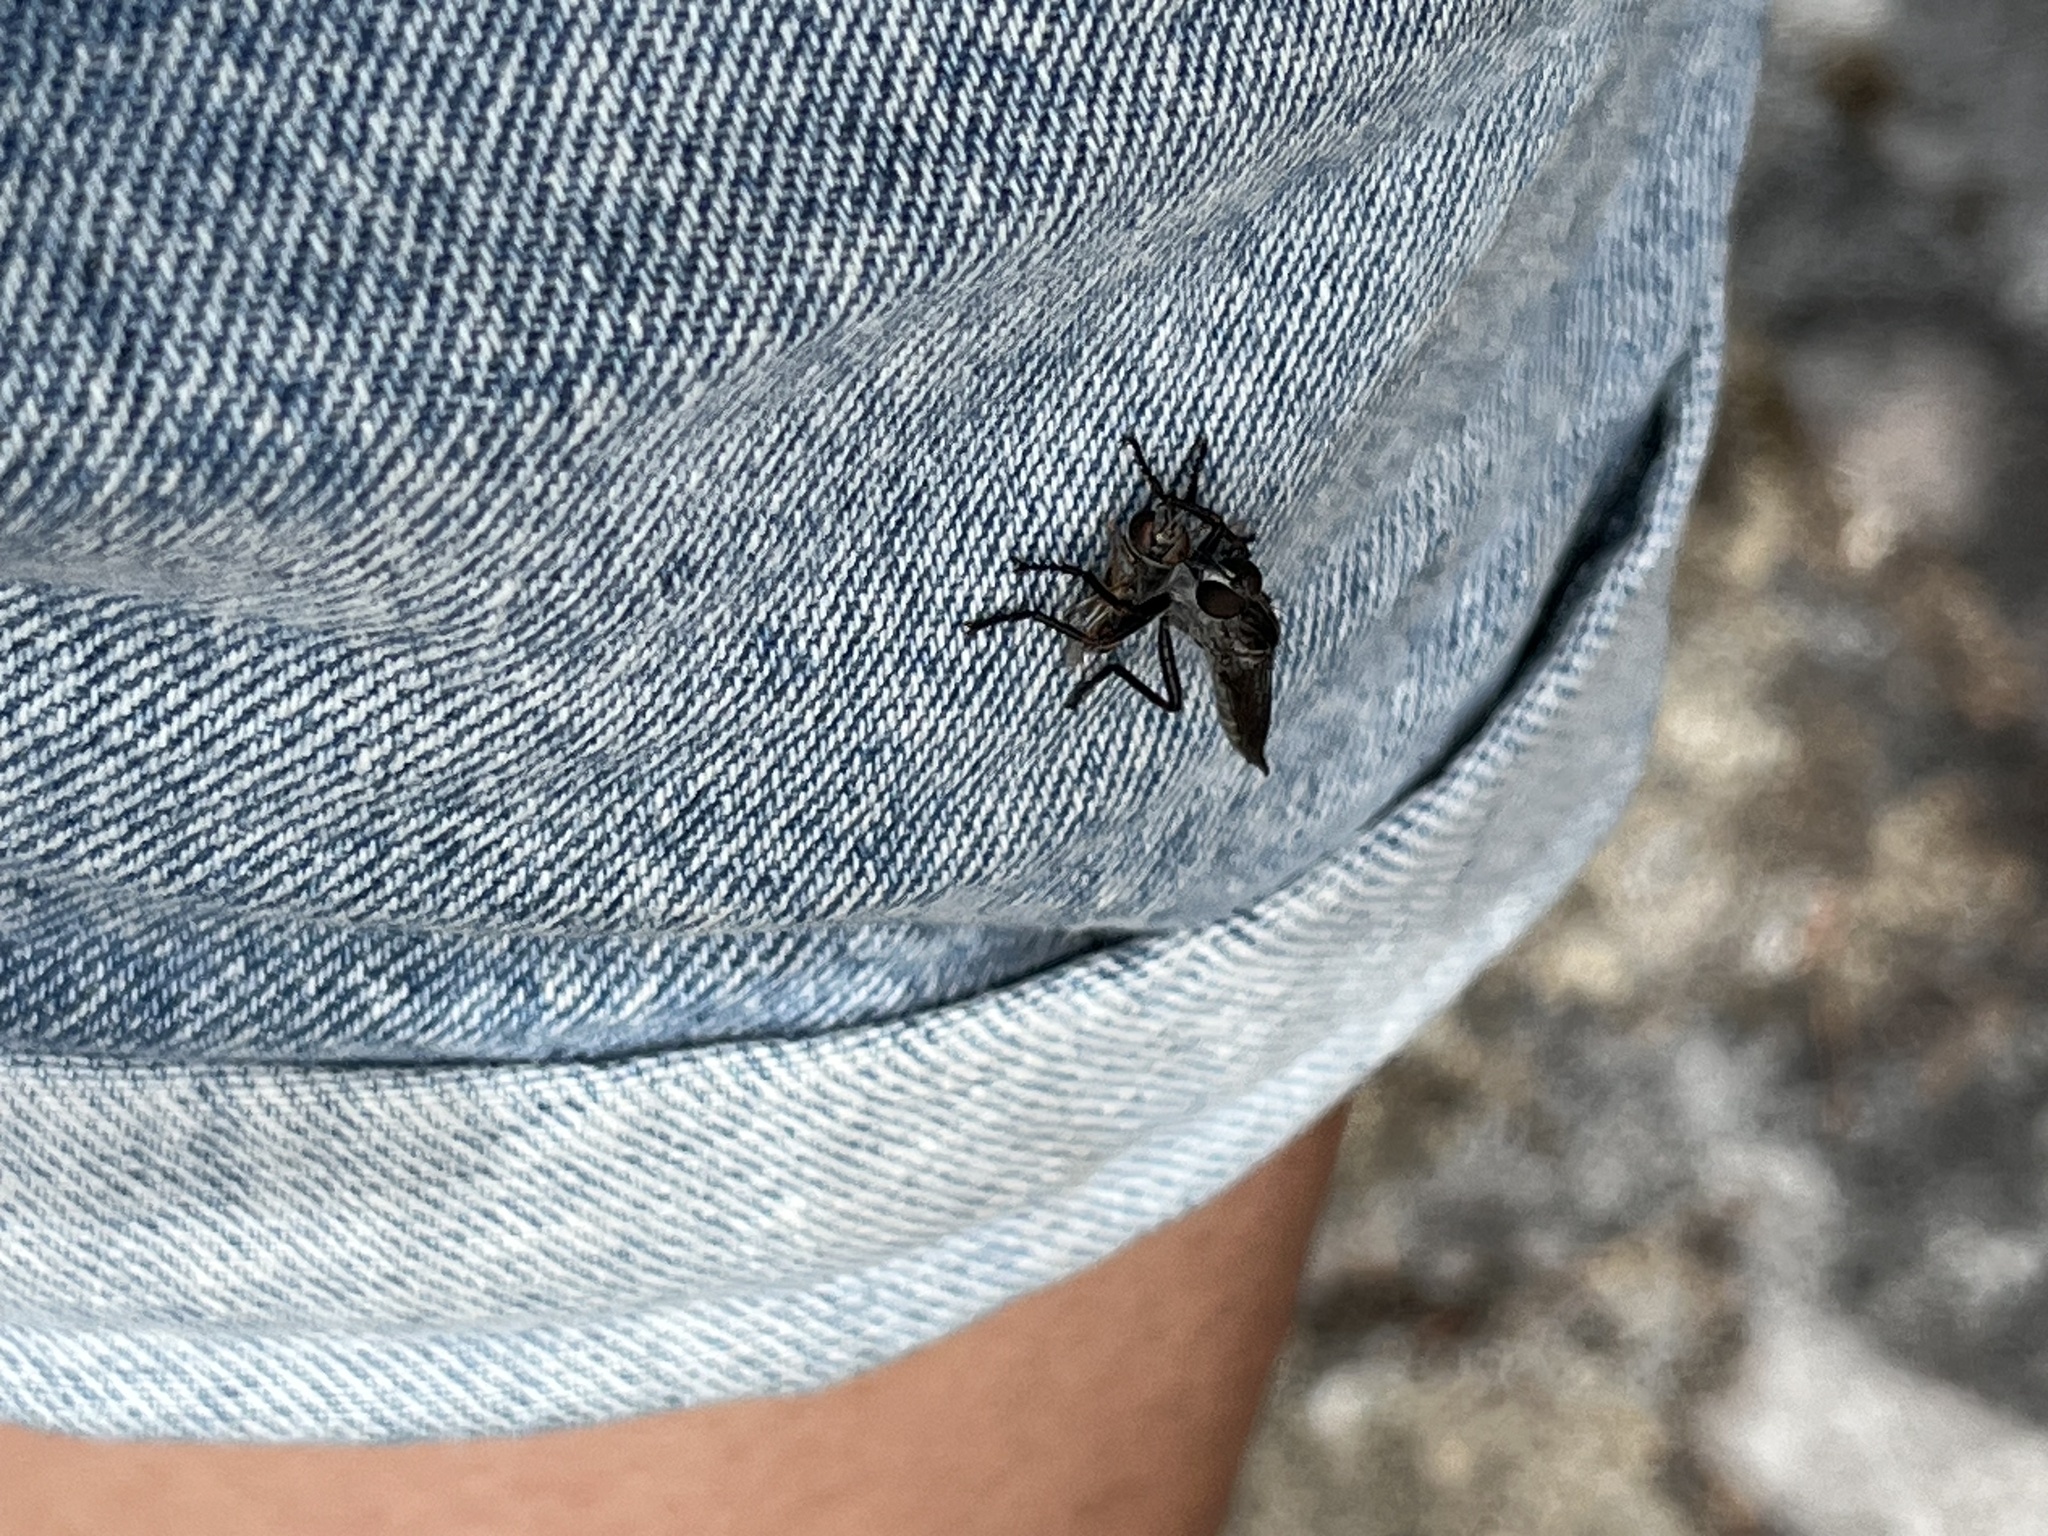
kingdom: Animalia
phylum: Arthropoda
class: Insecta
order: Diptera
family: Asilidae
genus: Machimus
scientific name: Machimus occidentalis
